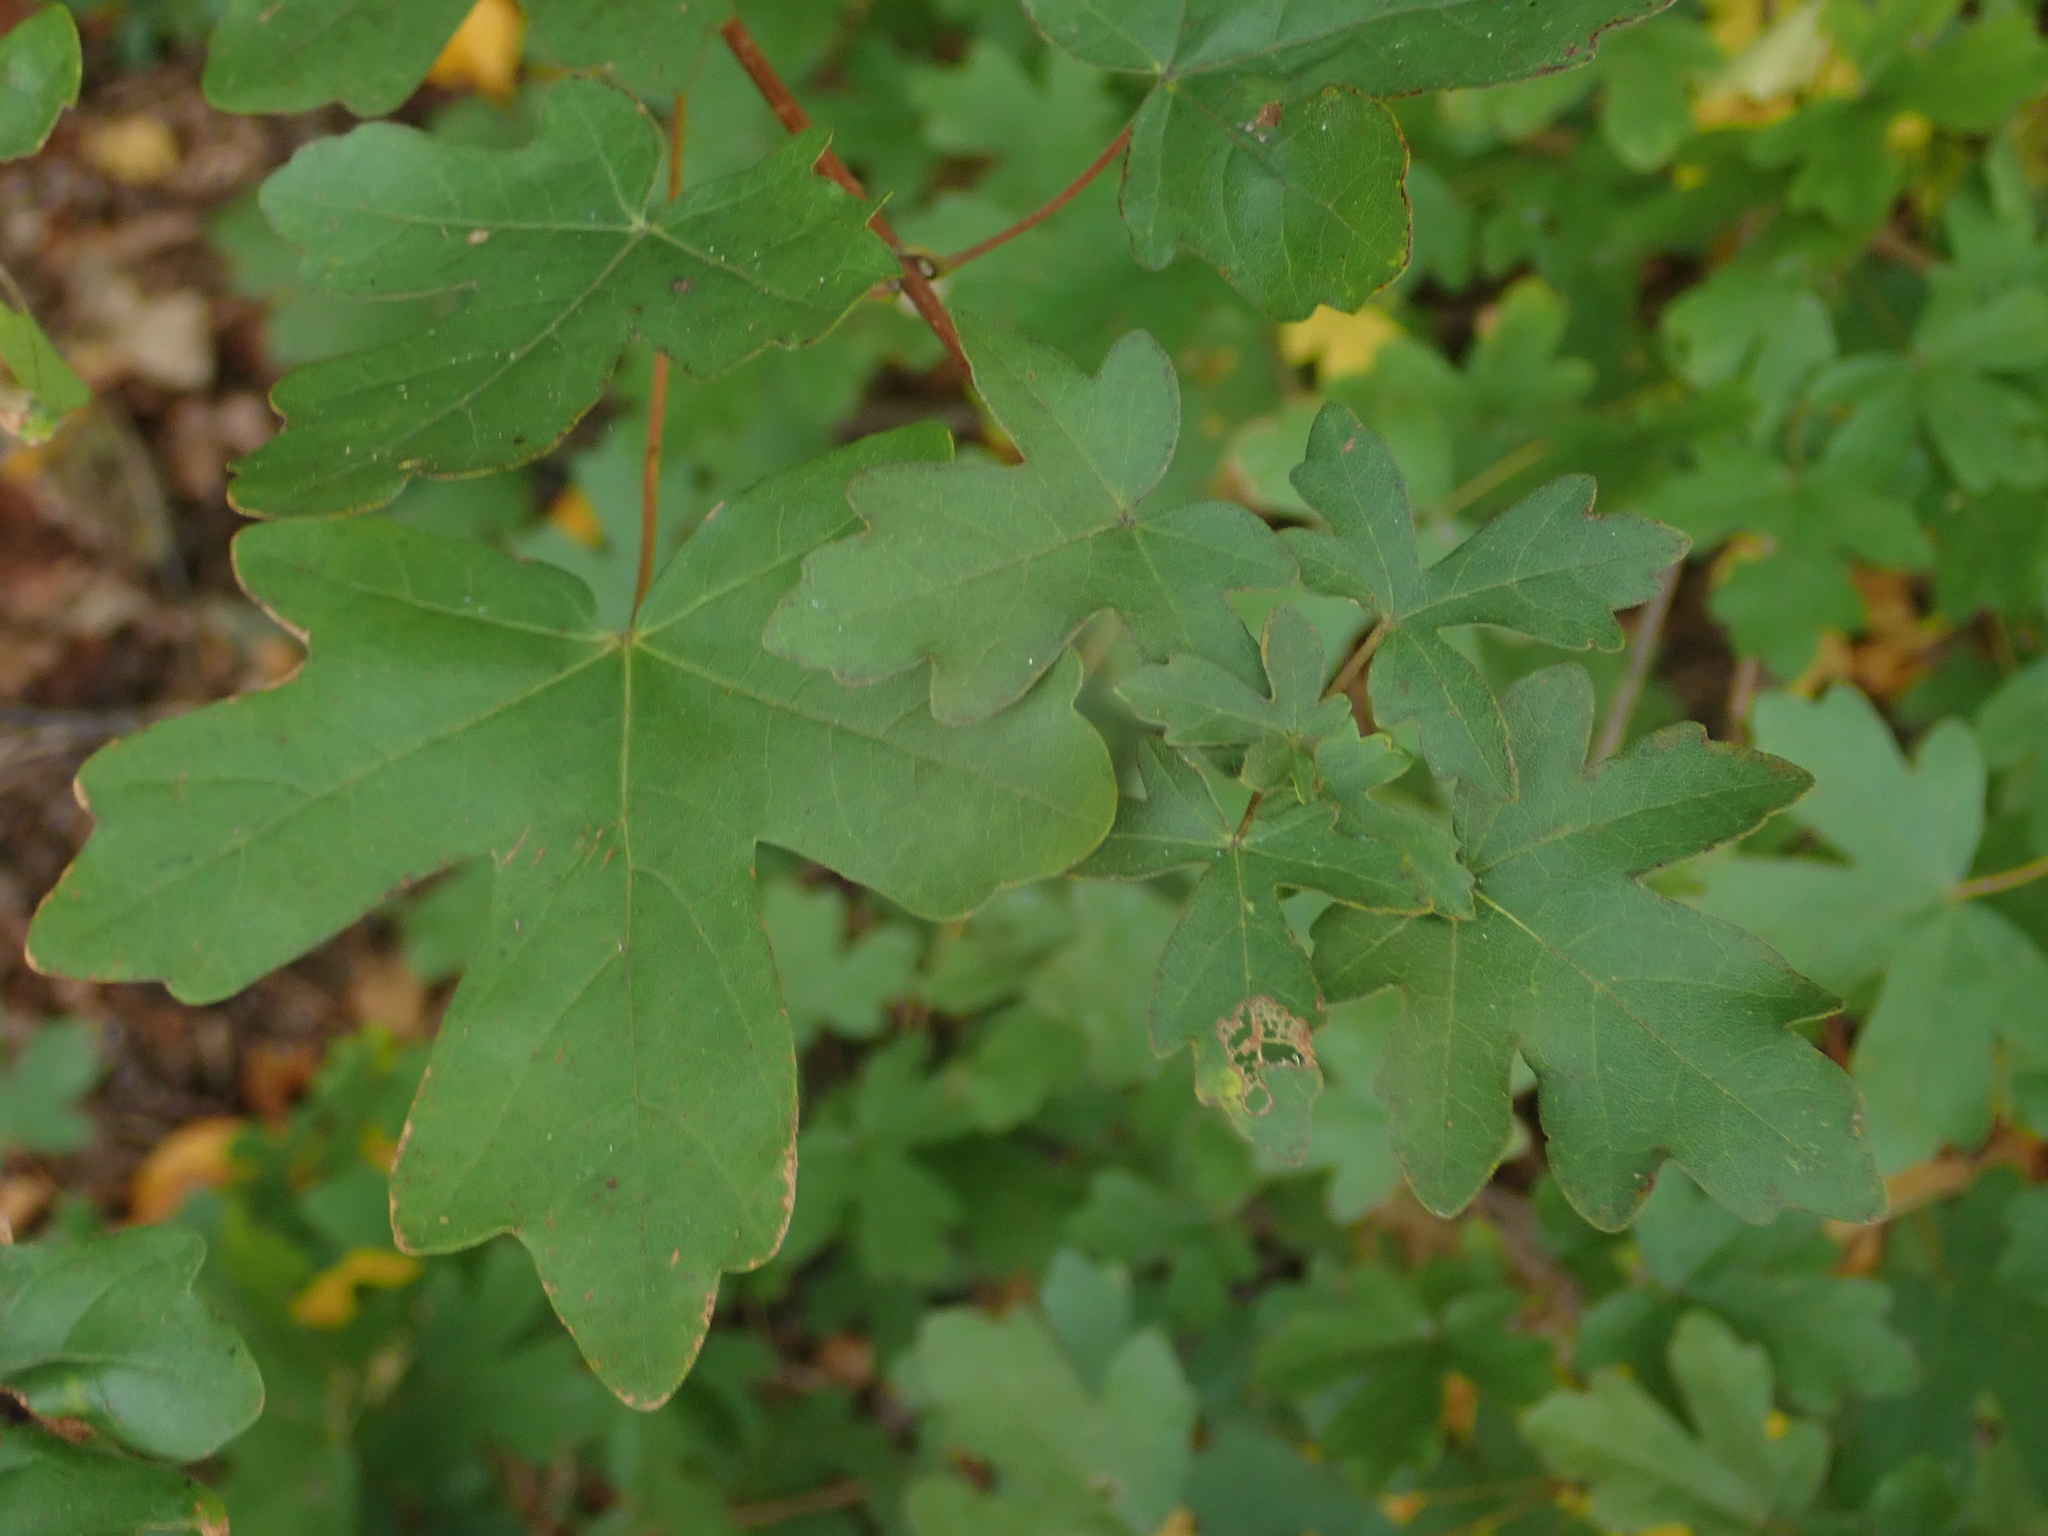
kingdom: Plantae
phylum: Tracheophyta
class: Magnoliopsida
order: Sapindales
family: Sapindaceae
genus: Acer
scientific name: Acer campestre
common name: Field maple
